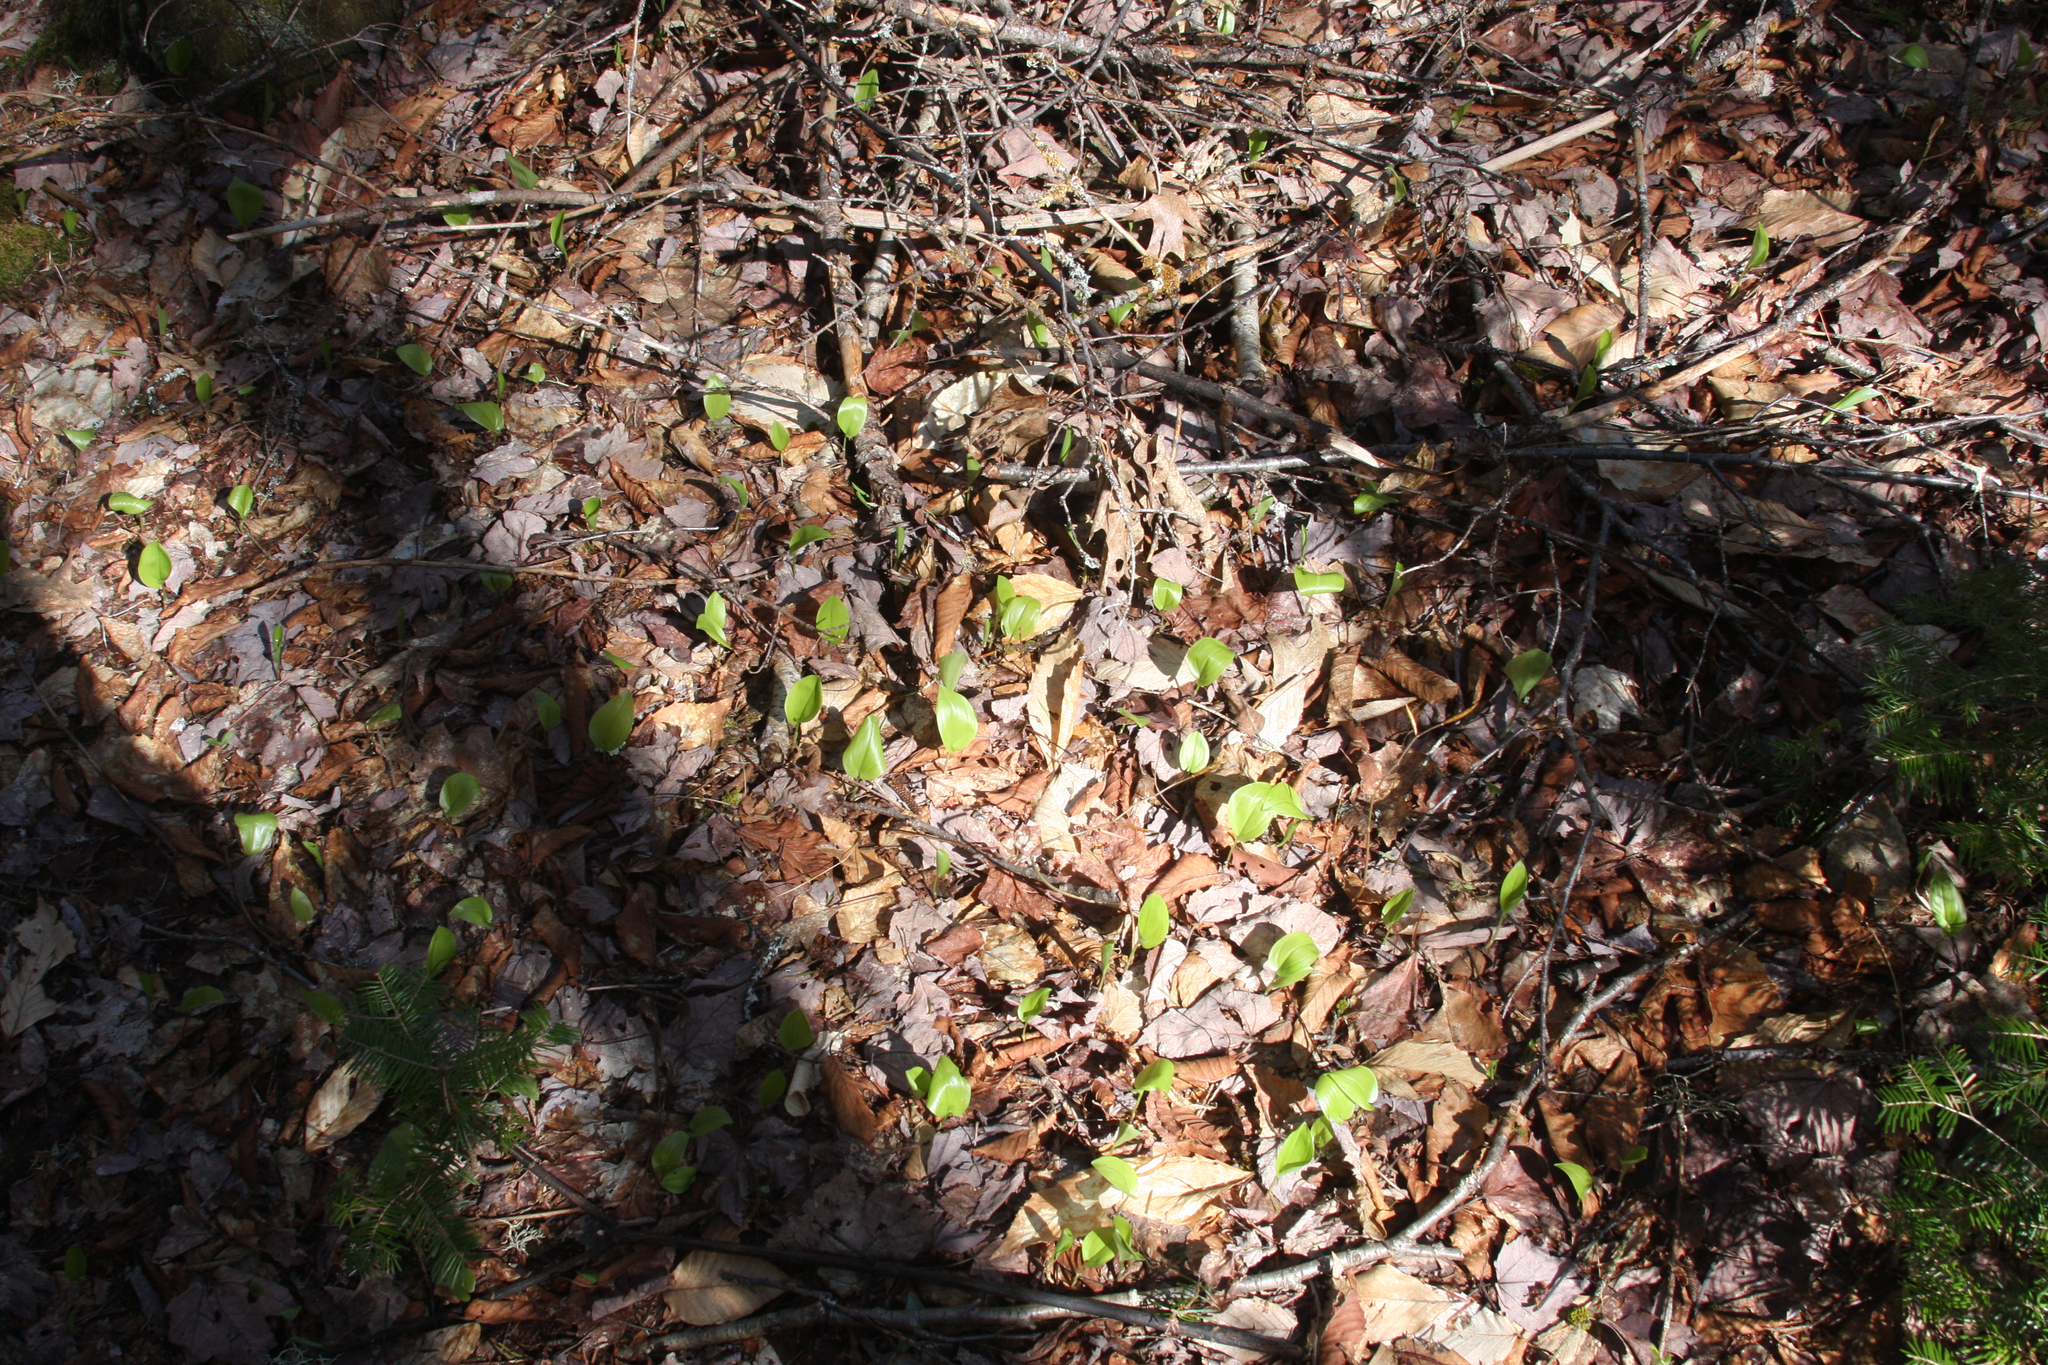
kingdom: Plantae
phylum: Tracheophyta
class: Liliopsida
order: Asparagales
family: Asparagaceae
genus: Maianthemum
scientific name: Maianthemum canadense
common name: False lily-of-the-valley
